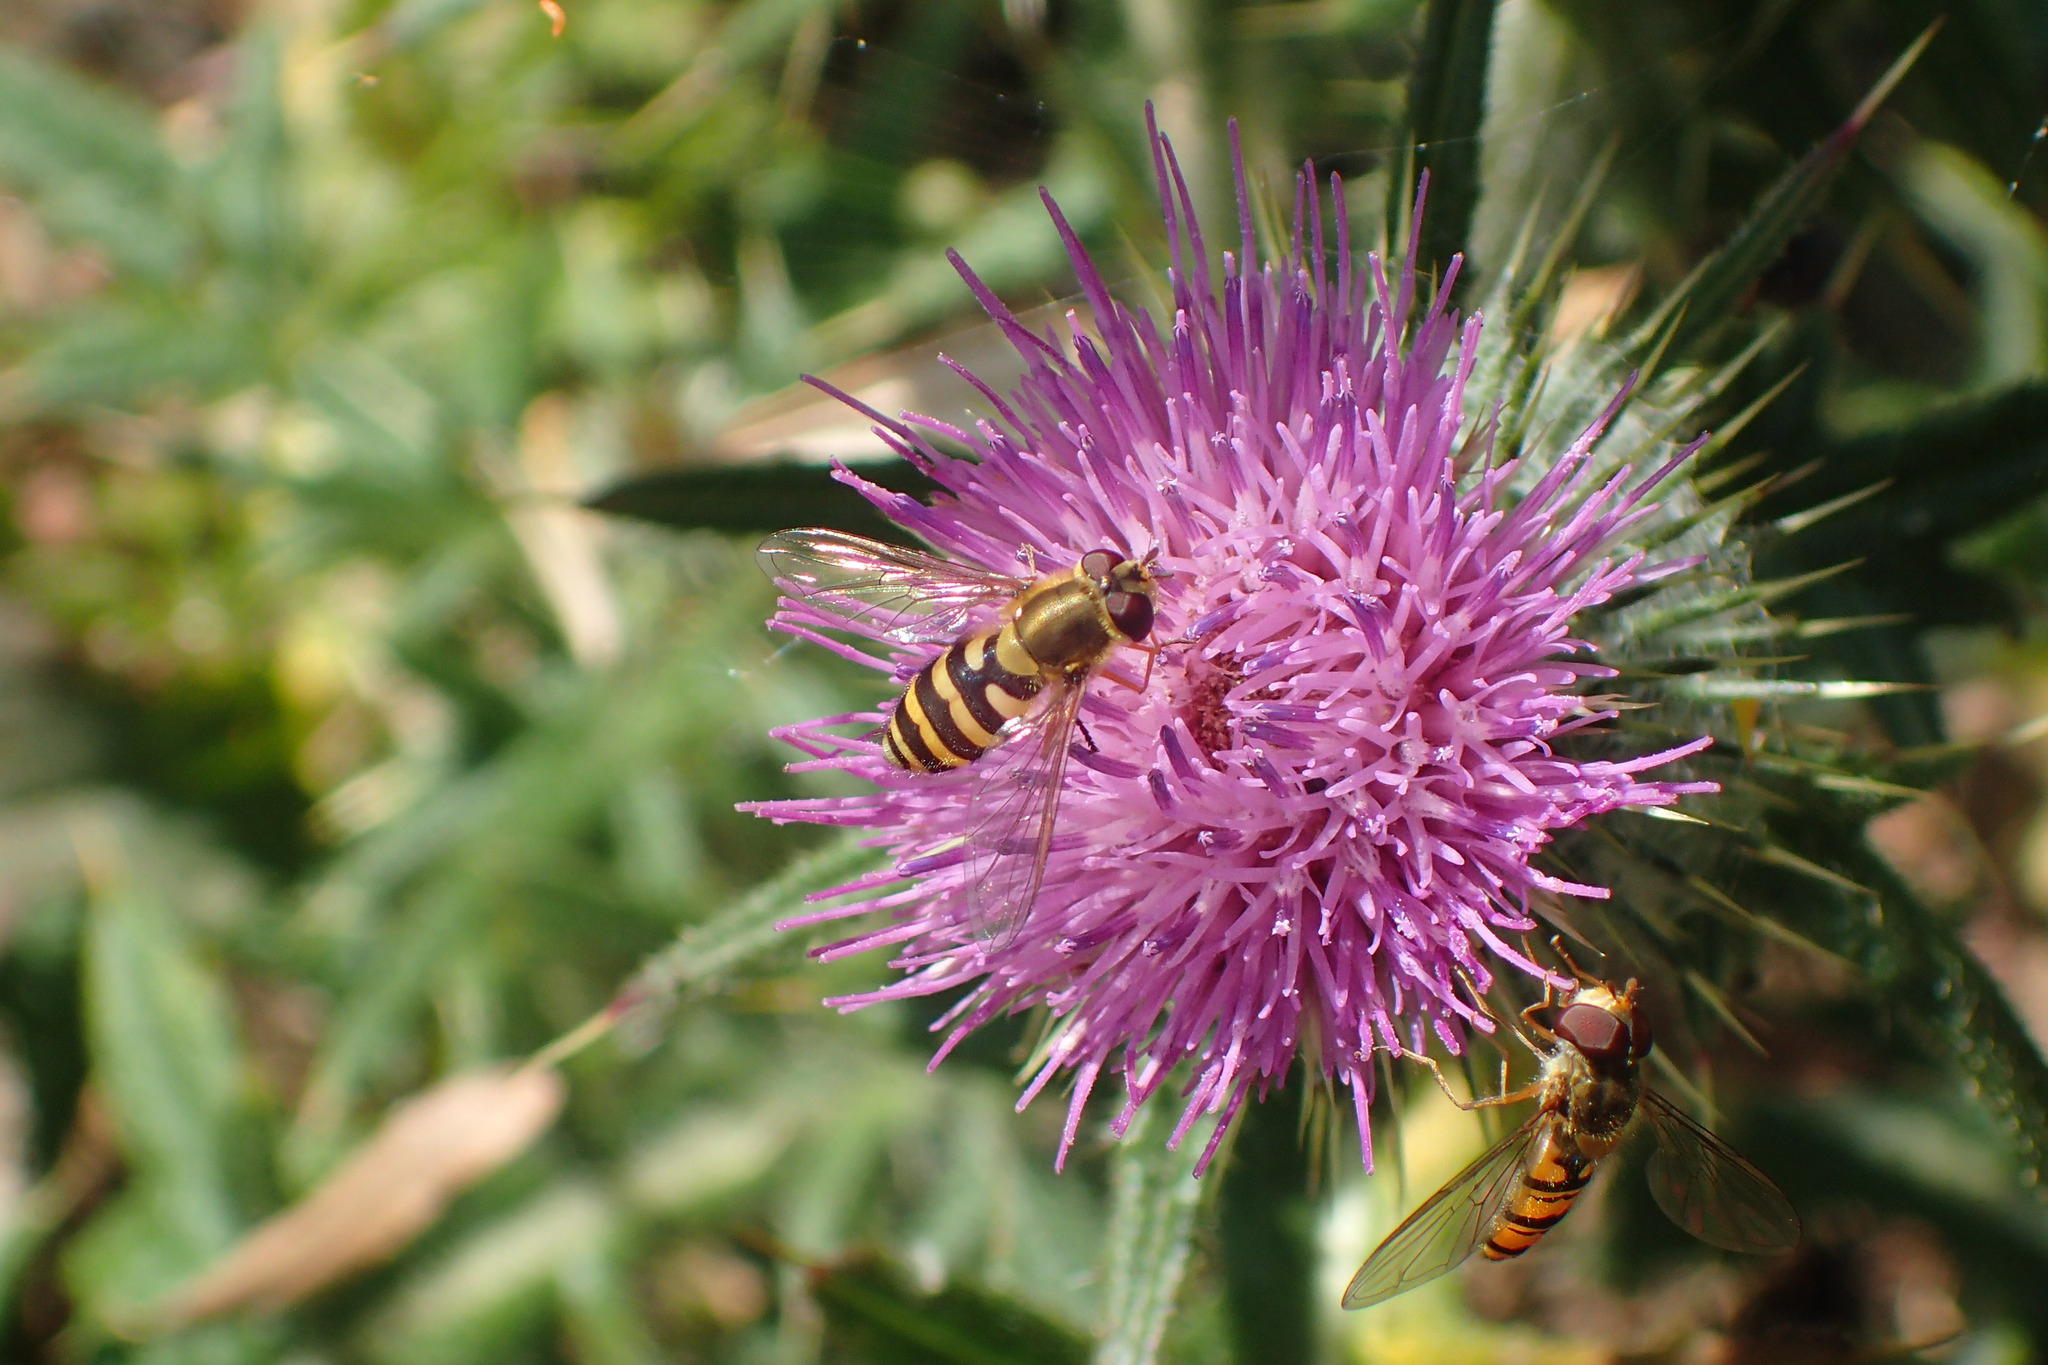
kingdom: Animalia
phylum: Arthropoda
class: Insecta
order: Diptera
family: Syrphidae
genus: Syrphus
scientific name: Syrphus
